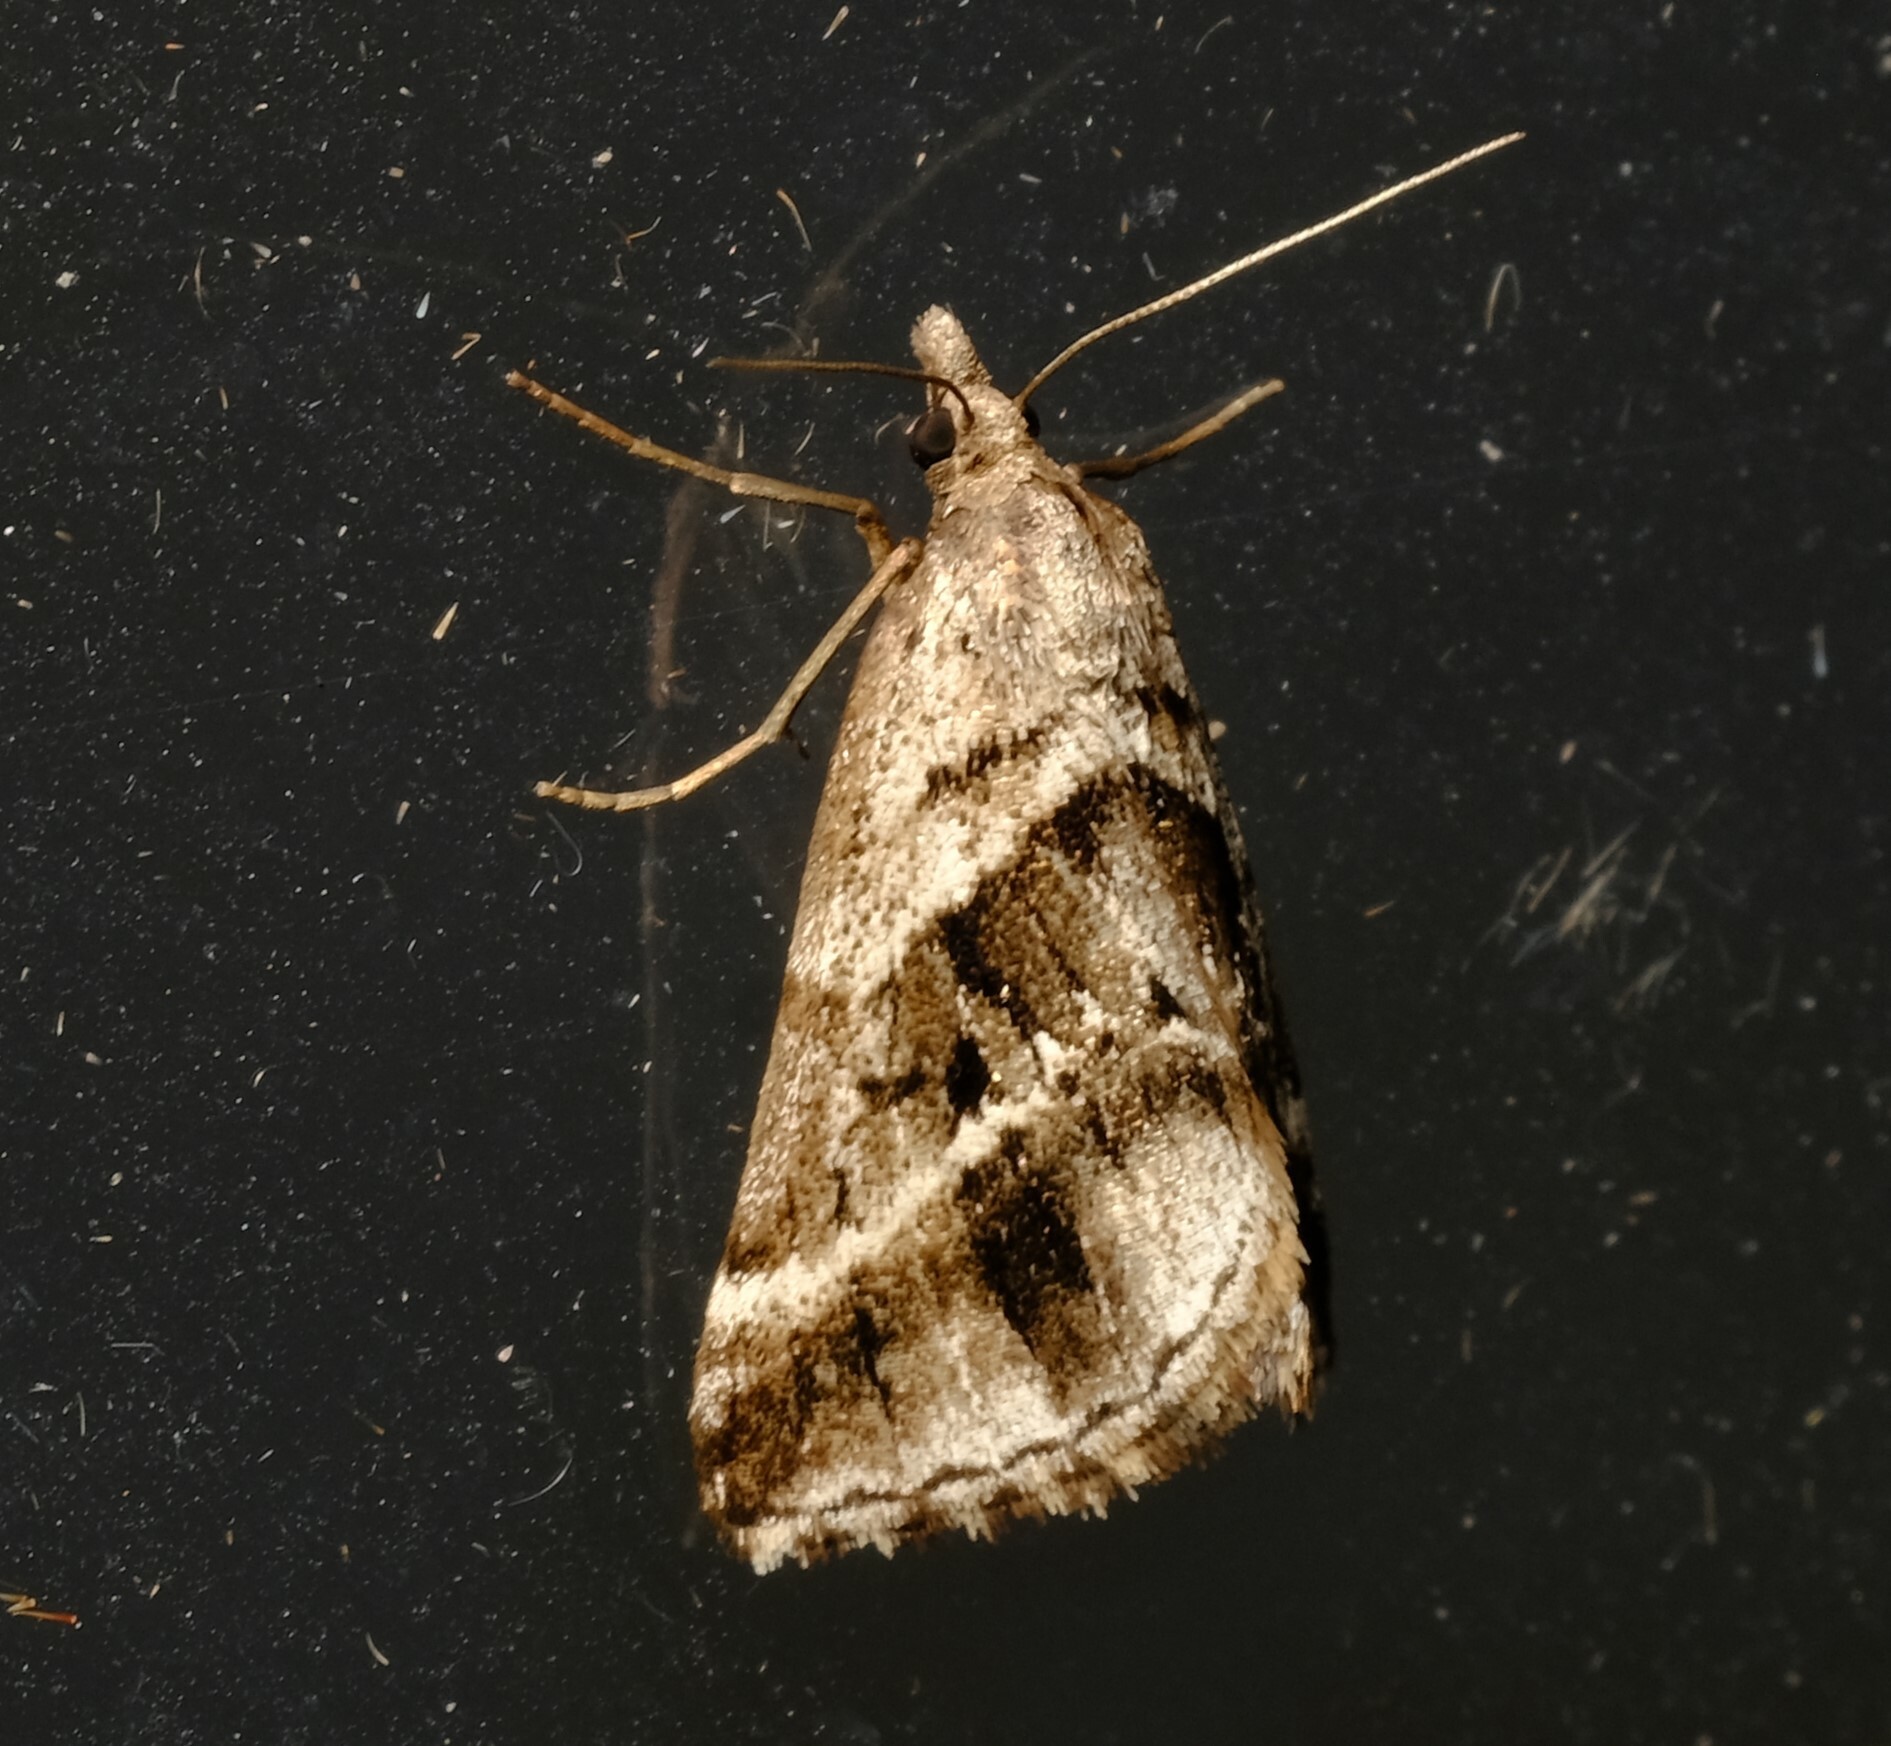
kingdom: Animalia
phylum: Arthropoda
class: Insecta
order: Lepidoptera
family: Geometridae
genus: Dichromodes
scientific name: Dichromodes stilbiata
